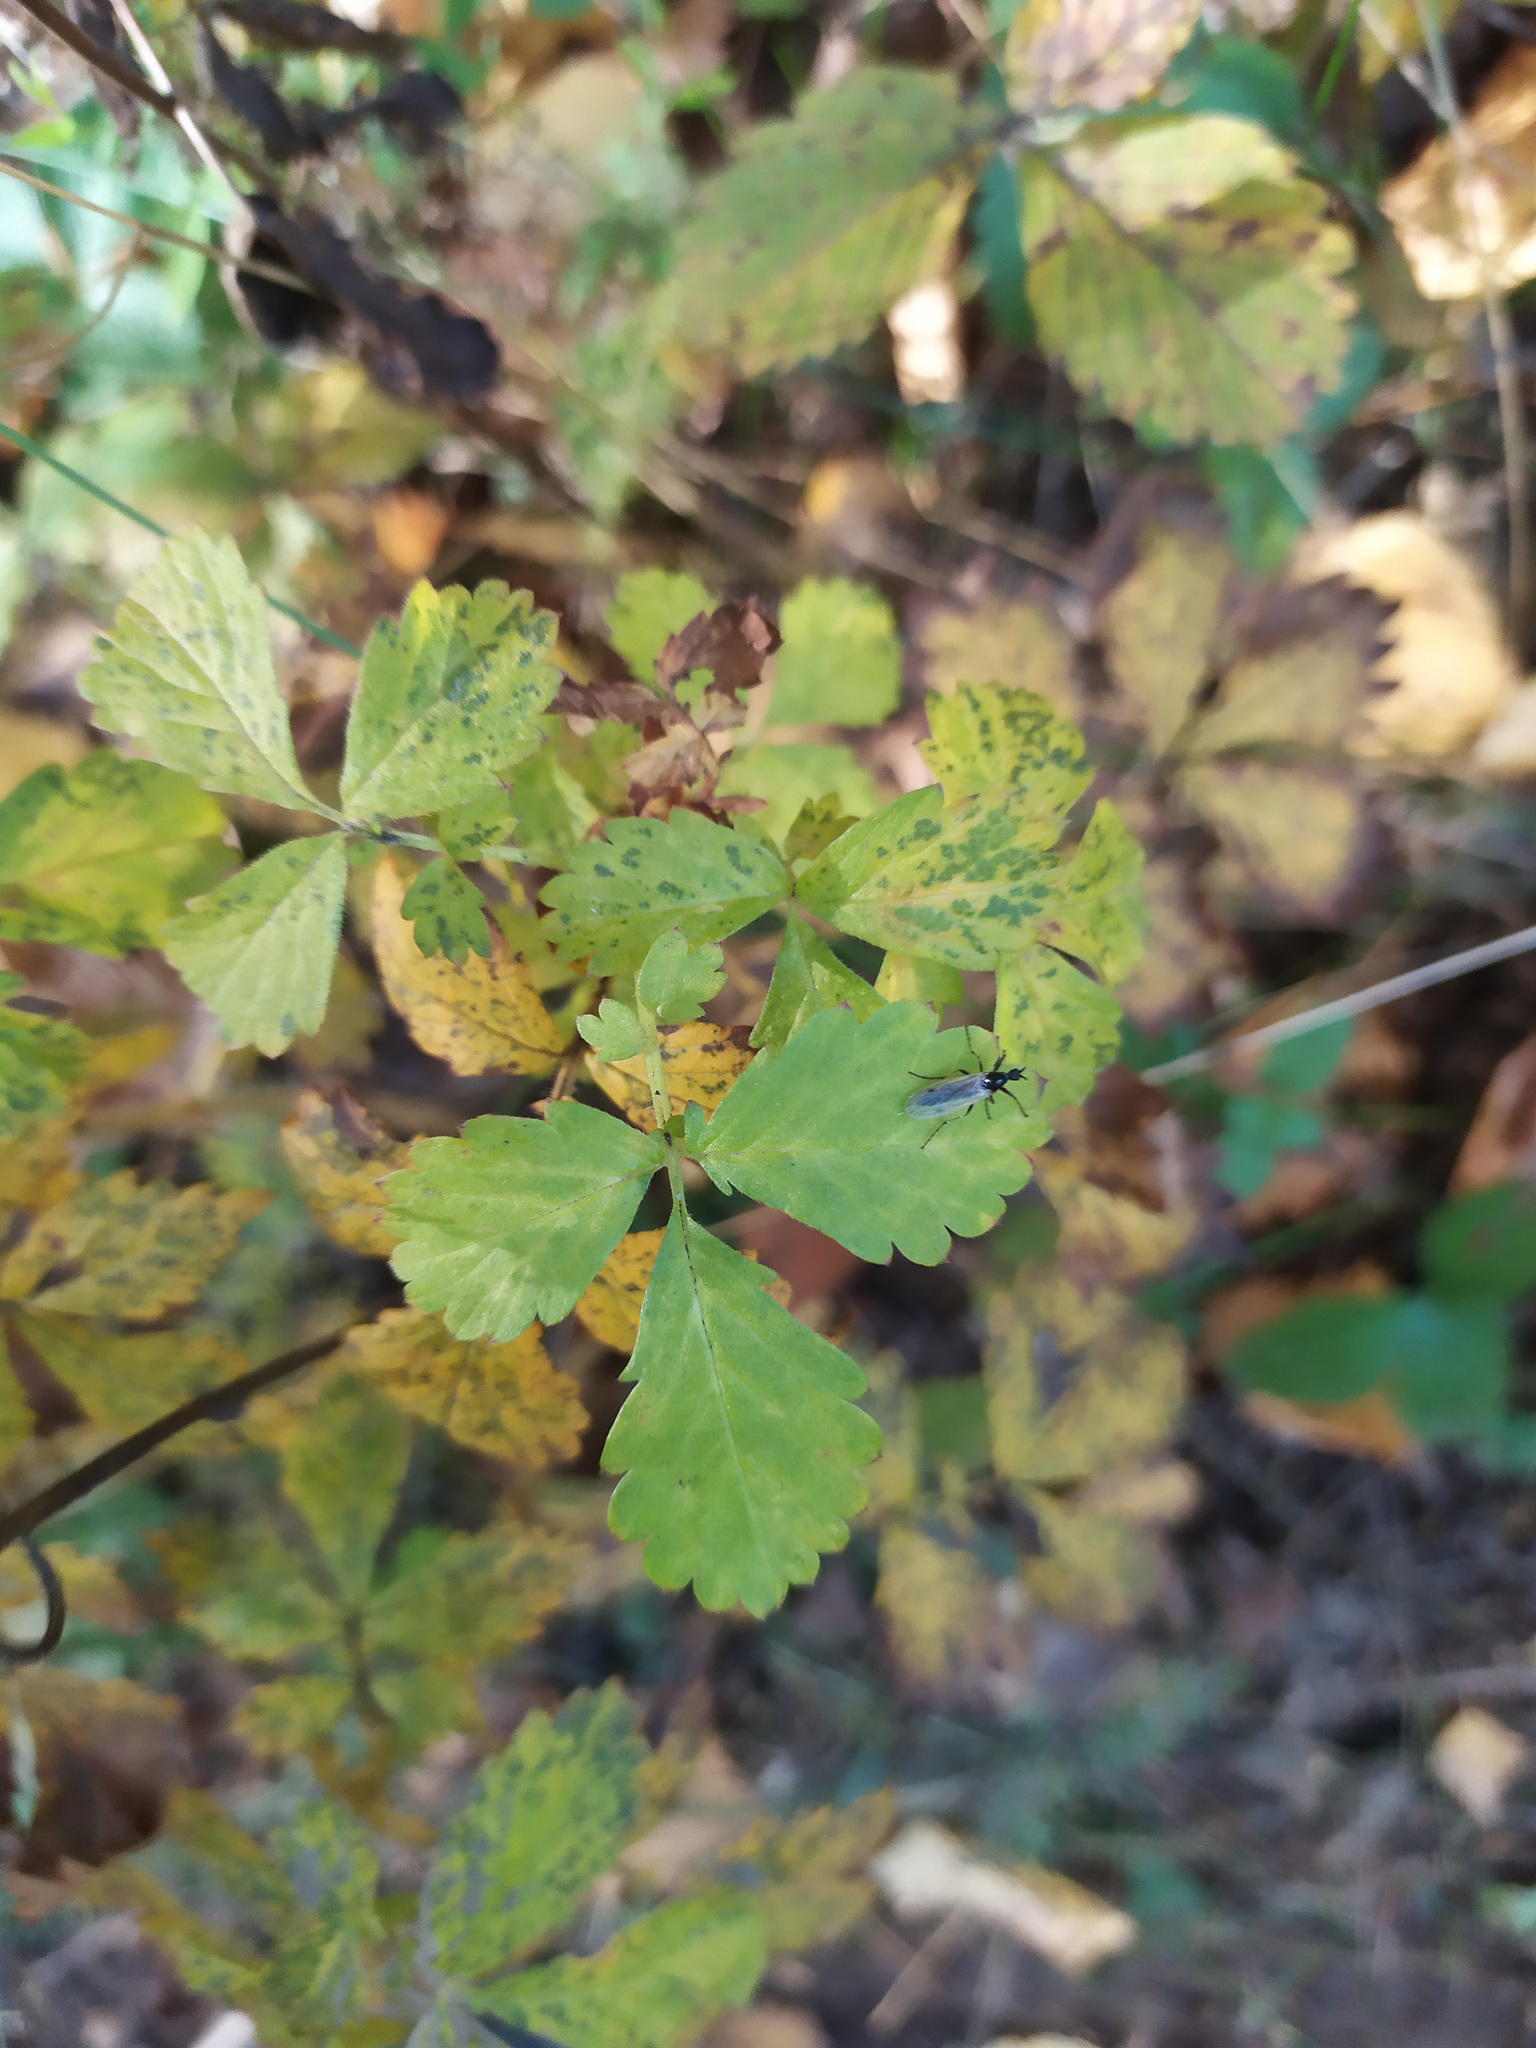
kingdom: Plantae
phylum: Tracheophyta
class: Magnoliopsida
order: Rosales
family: Rosaceae
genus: Agrimonia
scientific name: Agrimonia pilosa
